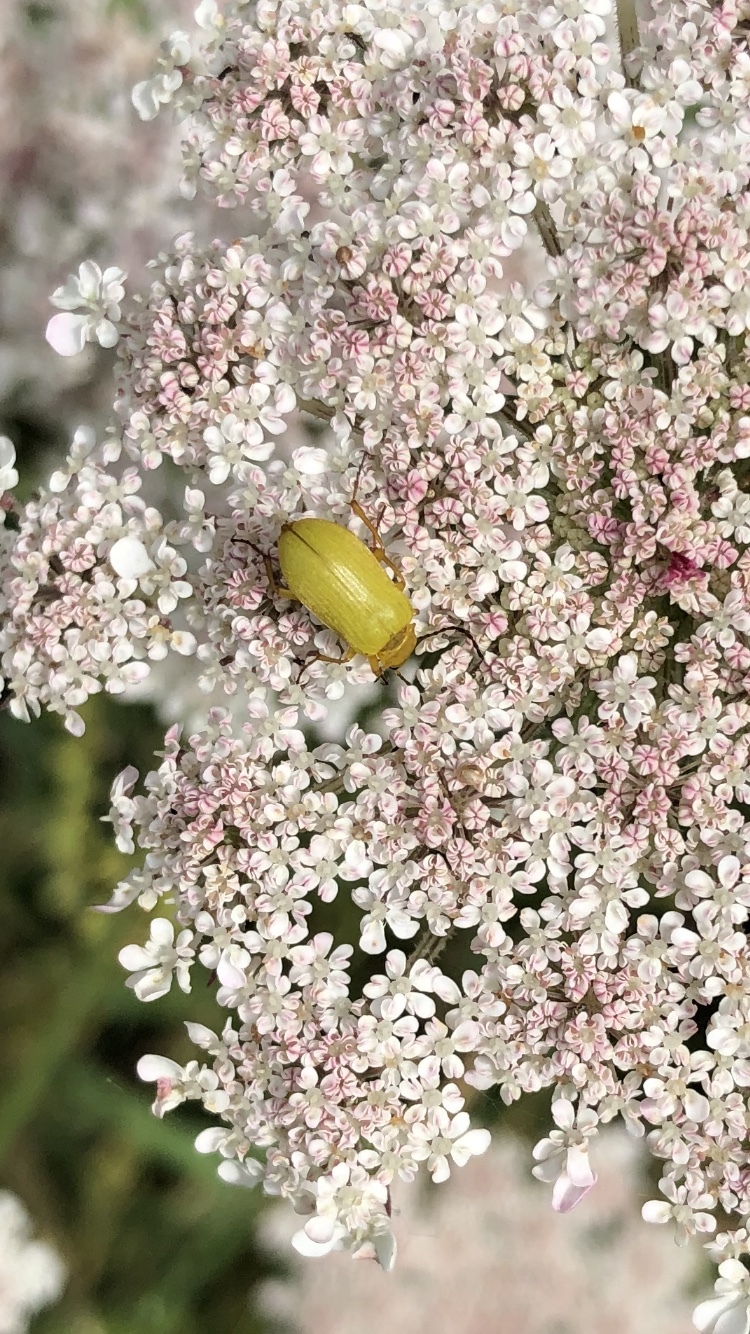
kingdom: Animalia
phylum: Arthropoda
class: Insecta
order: Coleoptera
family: Tenebrionidae
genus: Cteniopus
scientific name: Cteniopus sulphureus
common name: Sulphur beetle
